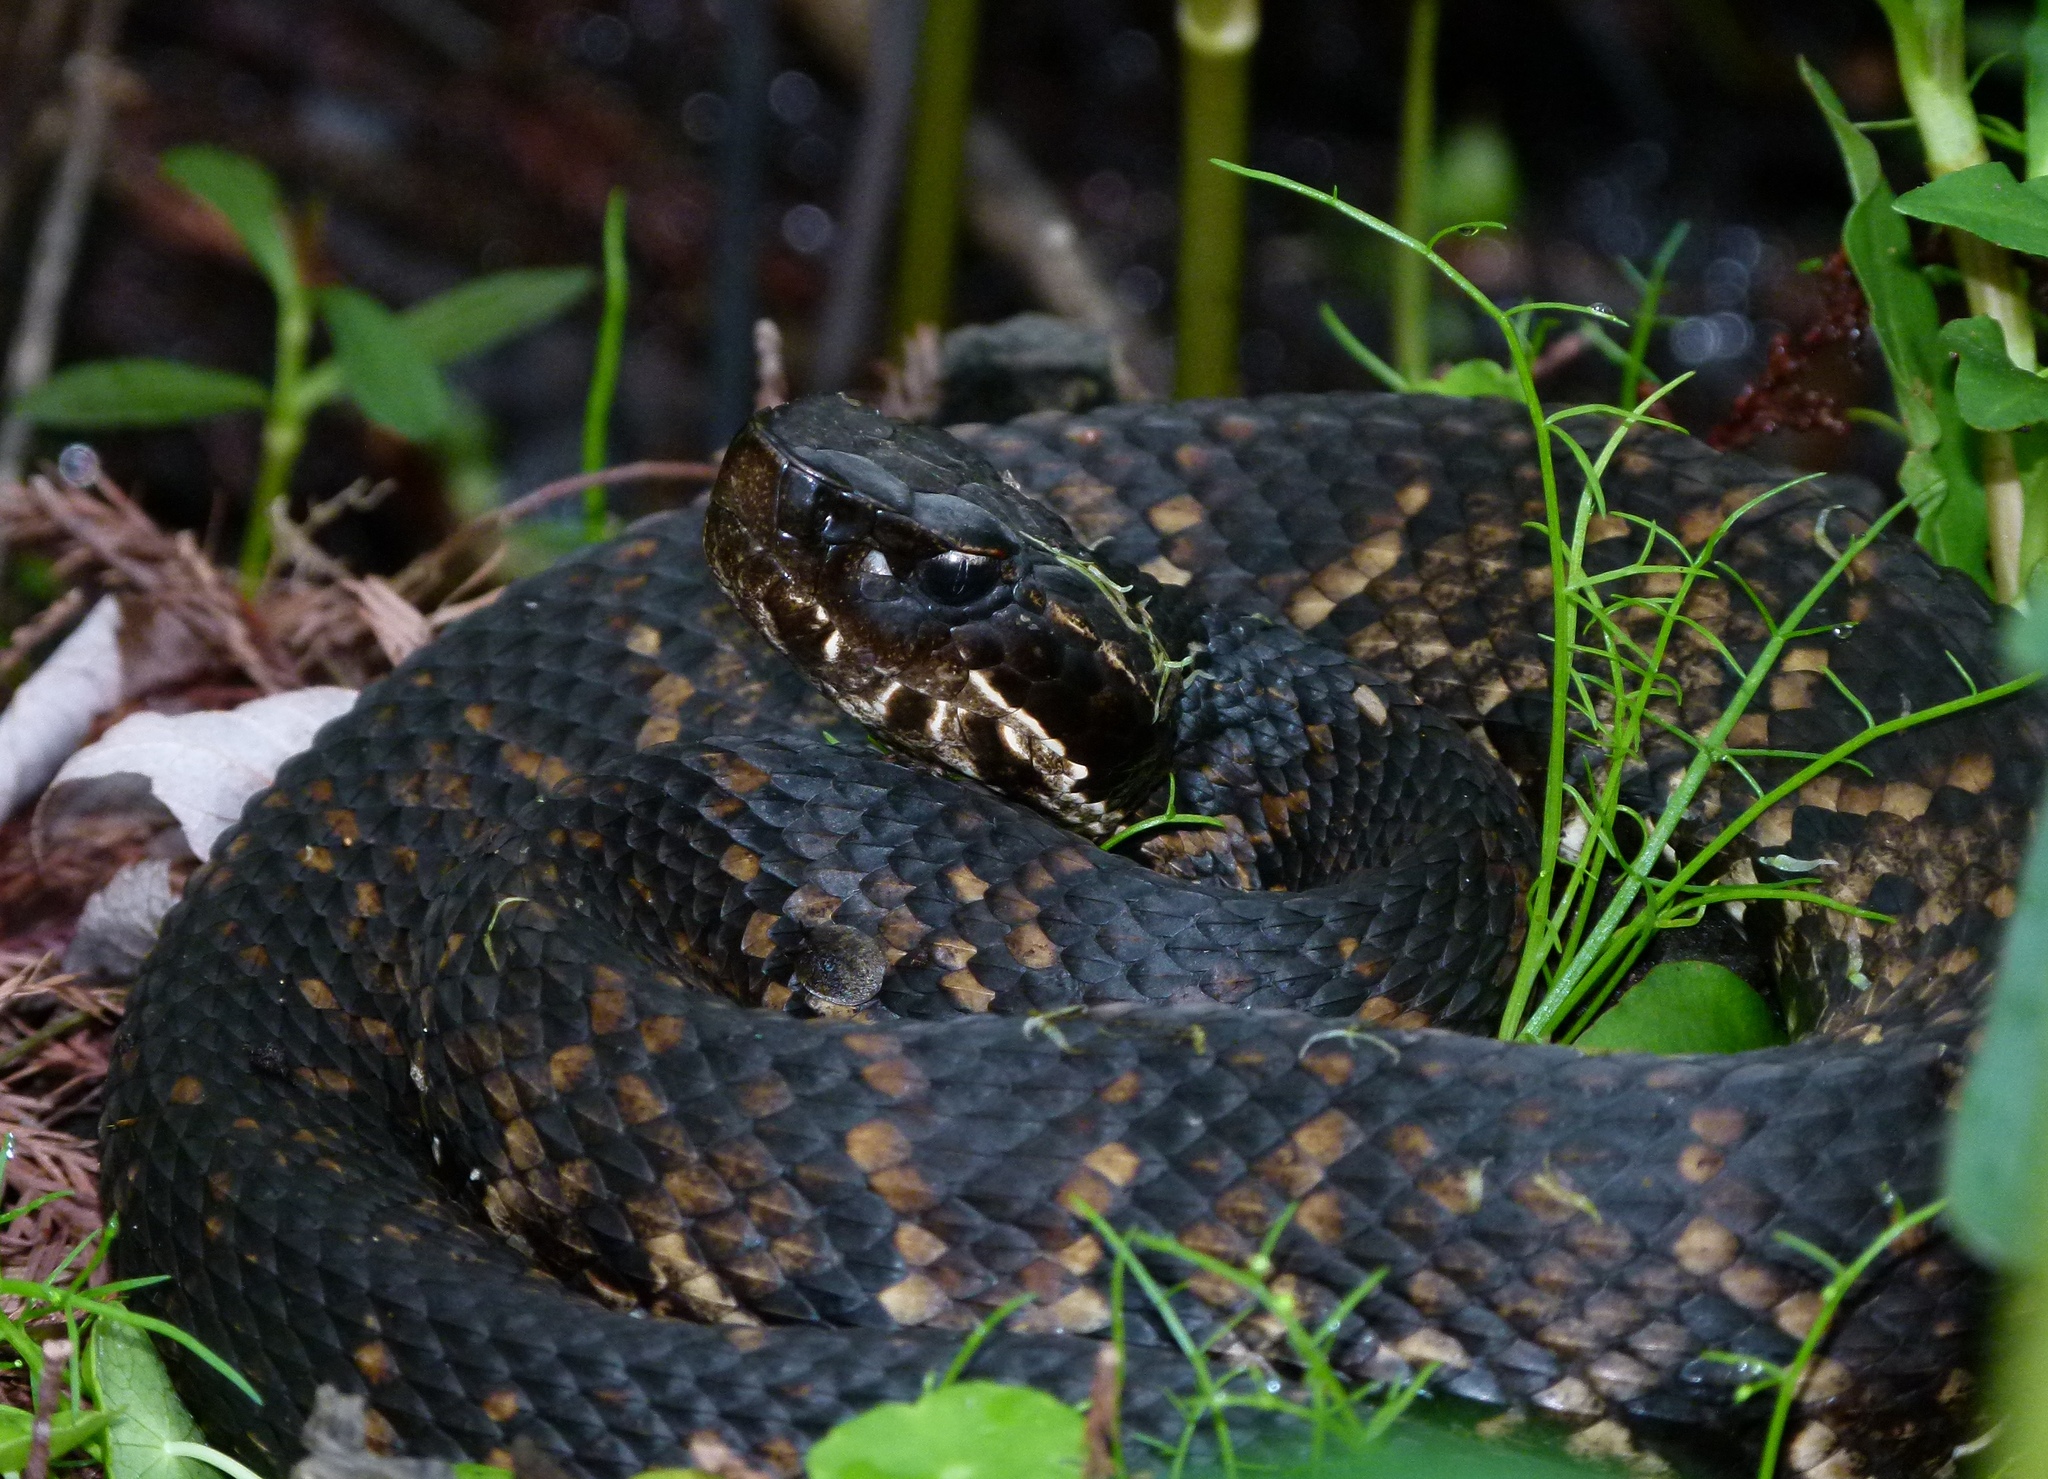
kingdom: Animalia
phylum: Chordata
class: Squamata
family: Viperidae
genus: Agkistrodon
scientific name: Agkistrodon piscivorus
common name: Cottonmouth
